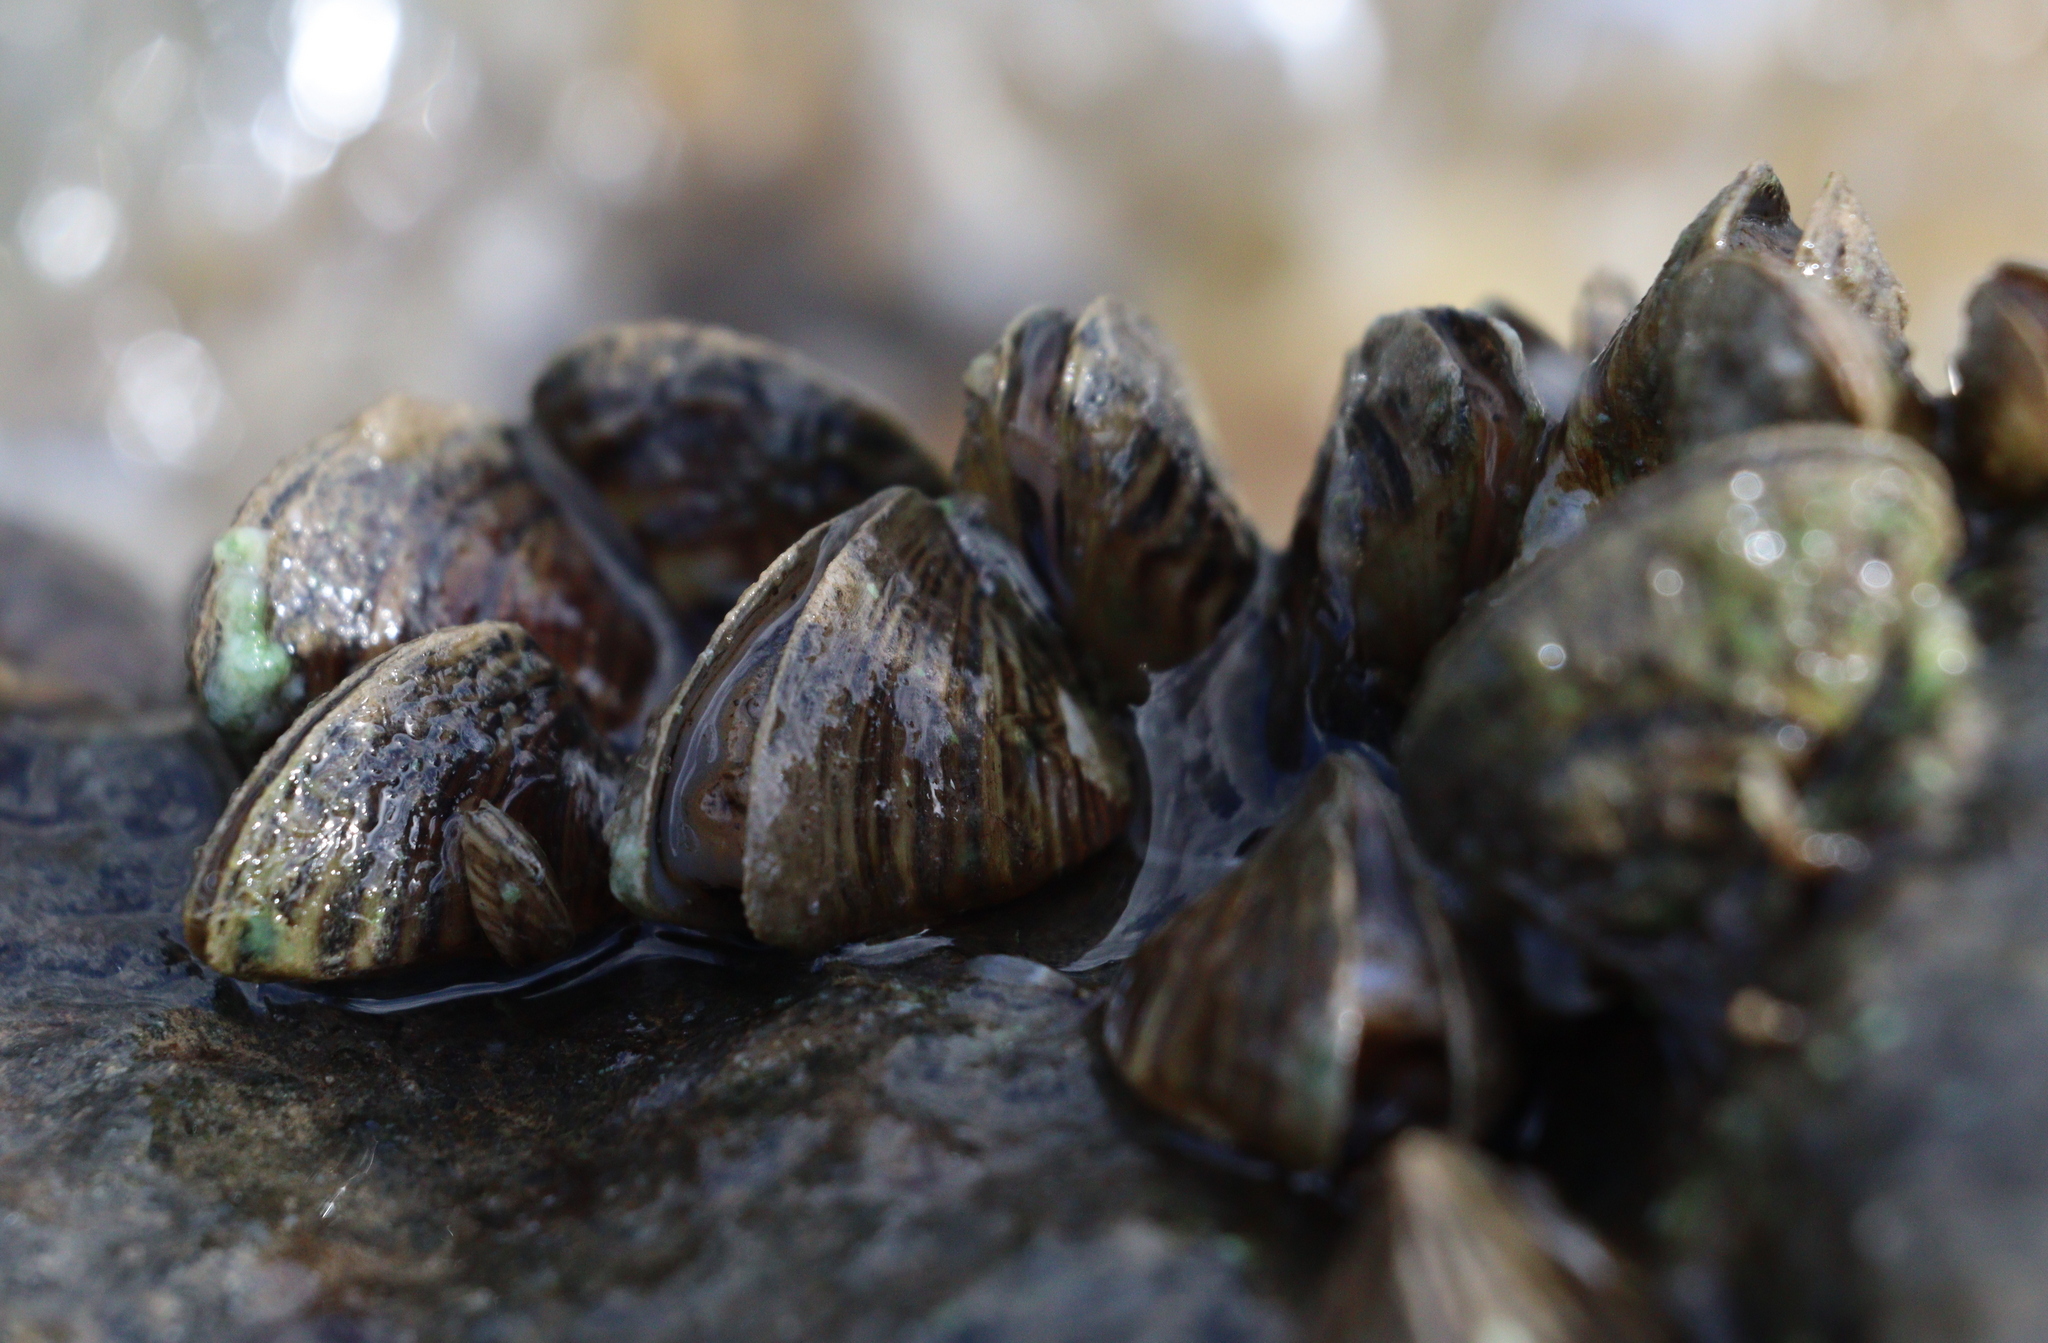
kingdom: Animalia
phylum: Mollusca
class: Bivalvia
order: Myida
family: Dreissenidae
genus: Dreissena
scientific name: Dreissena polymorpha
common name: Zebra mussel
